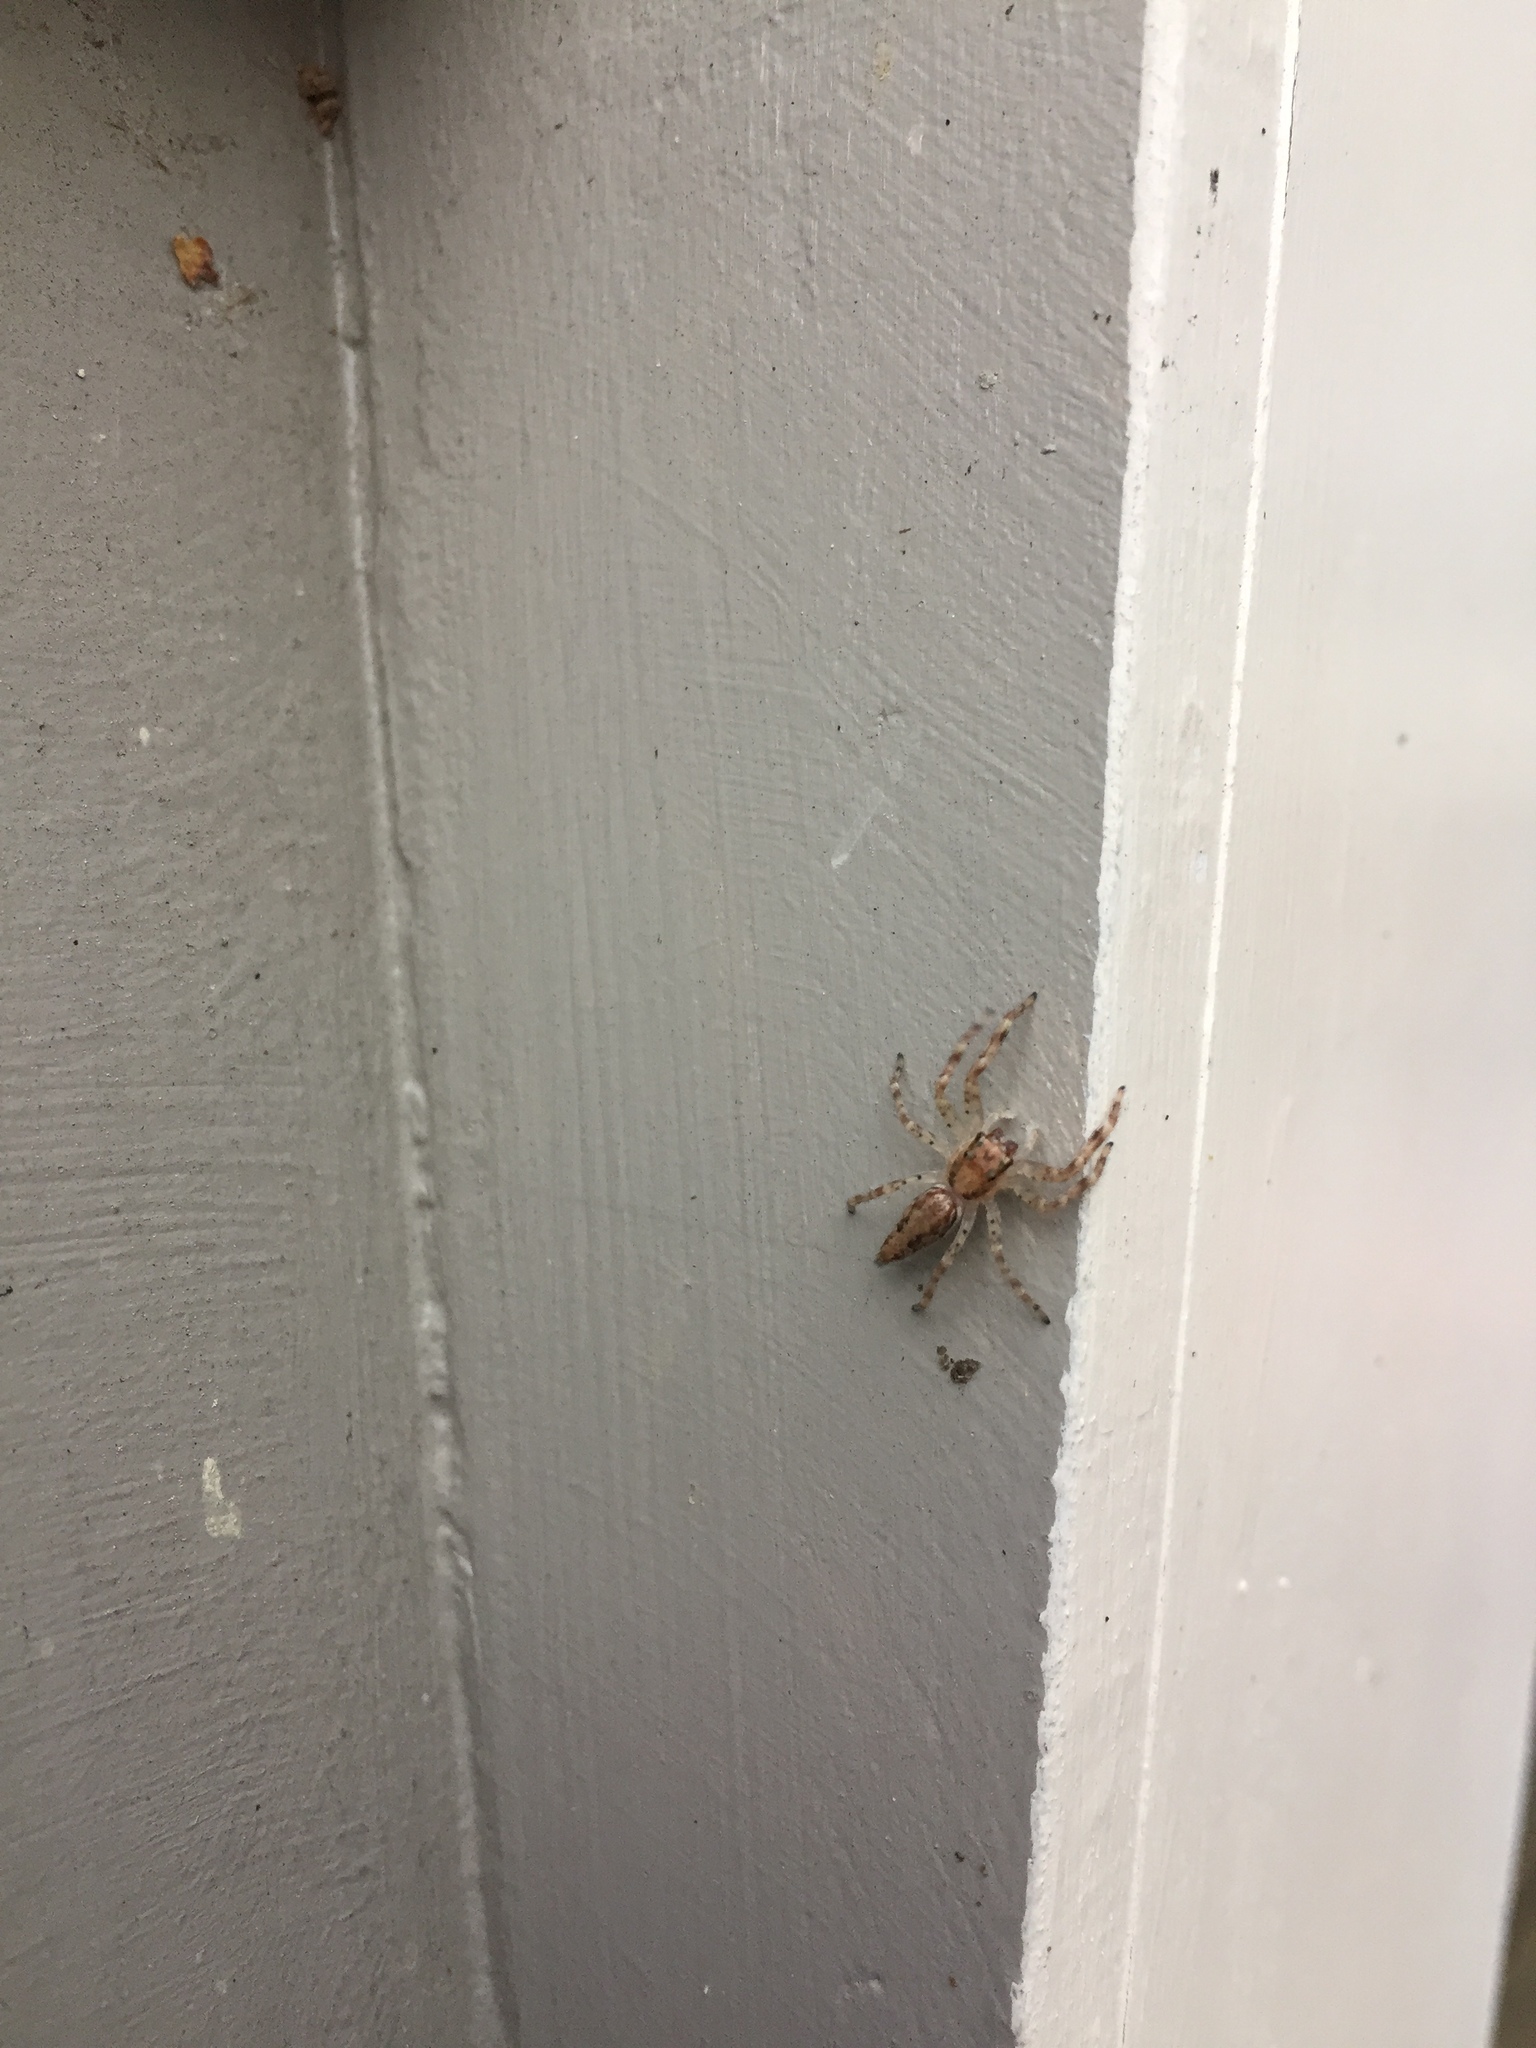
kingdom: Animalia
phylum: Arthropoda
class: Arachnida
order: Araneae
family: Salticidae
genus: Helpis
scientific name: Helpis minitabunda
